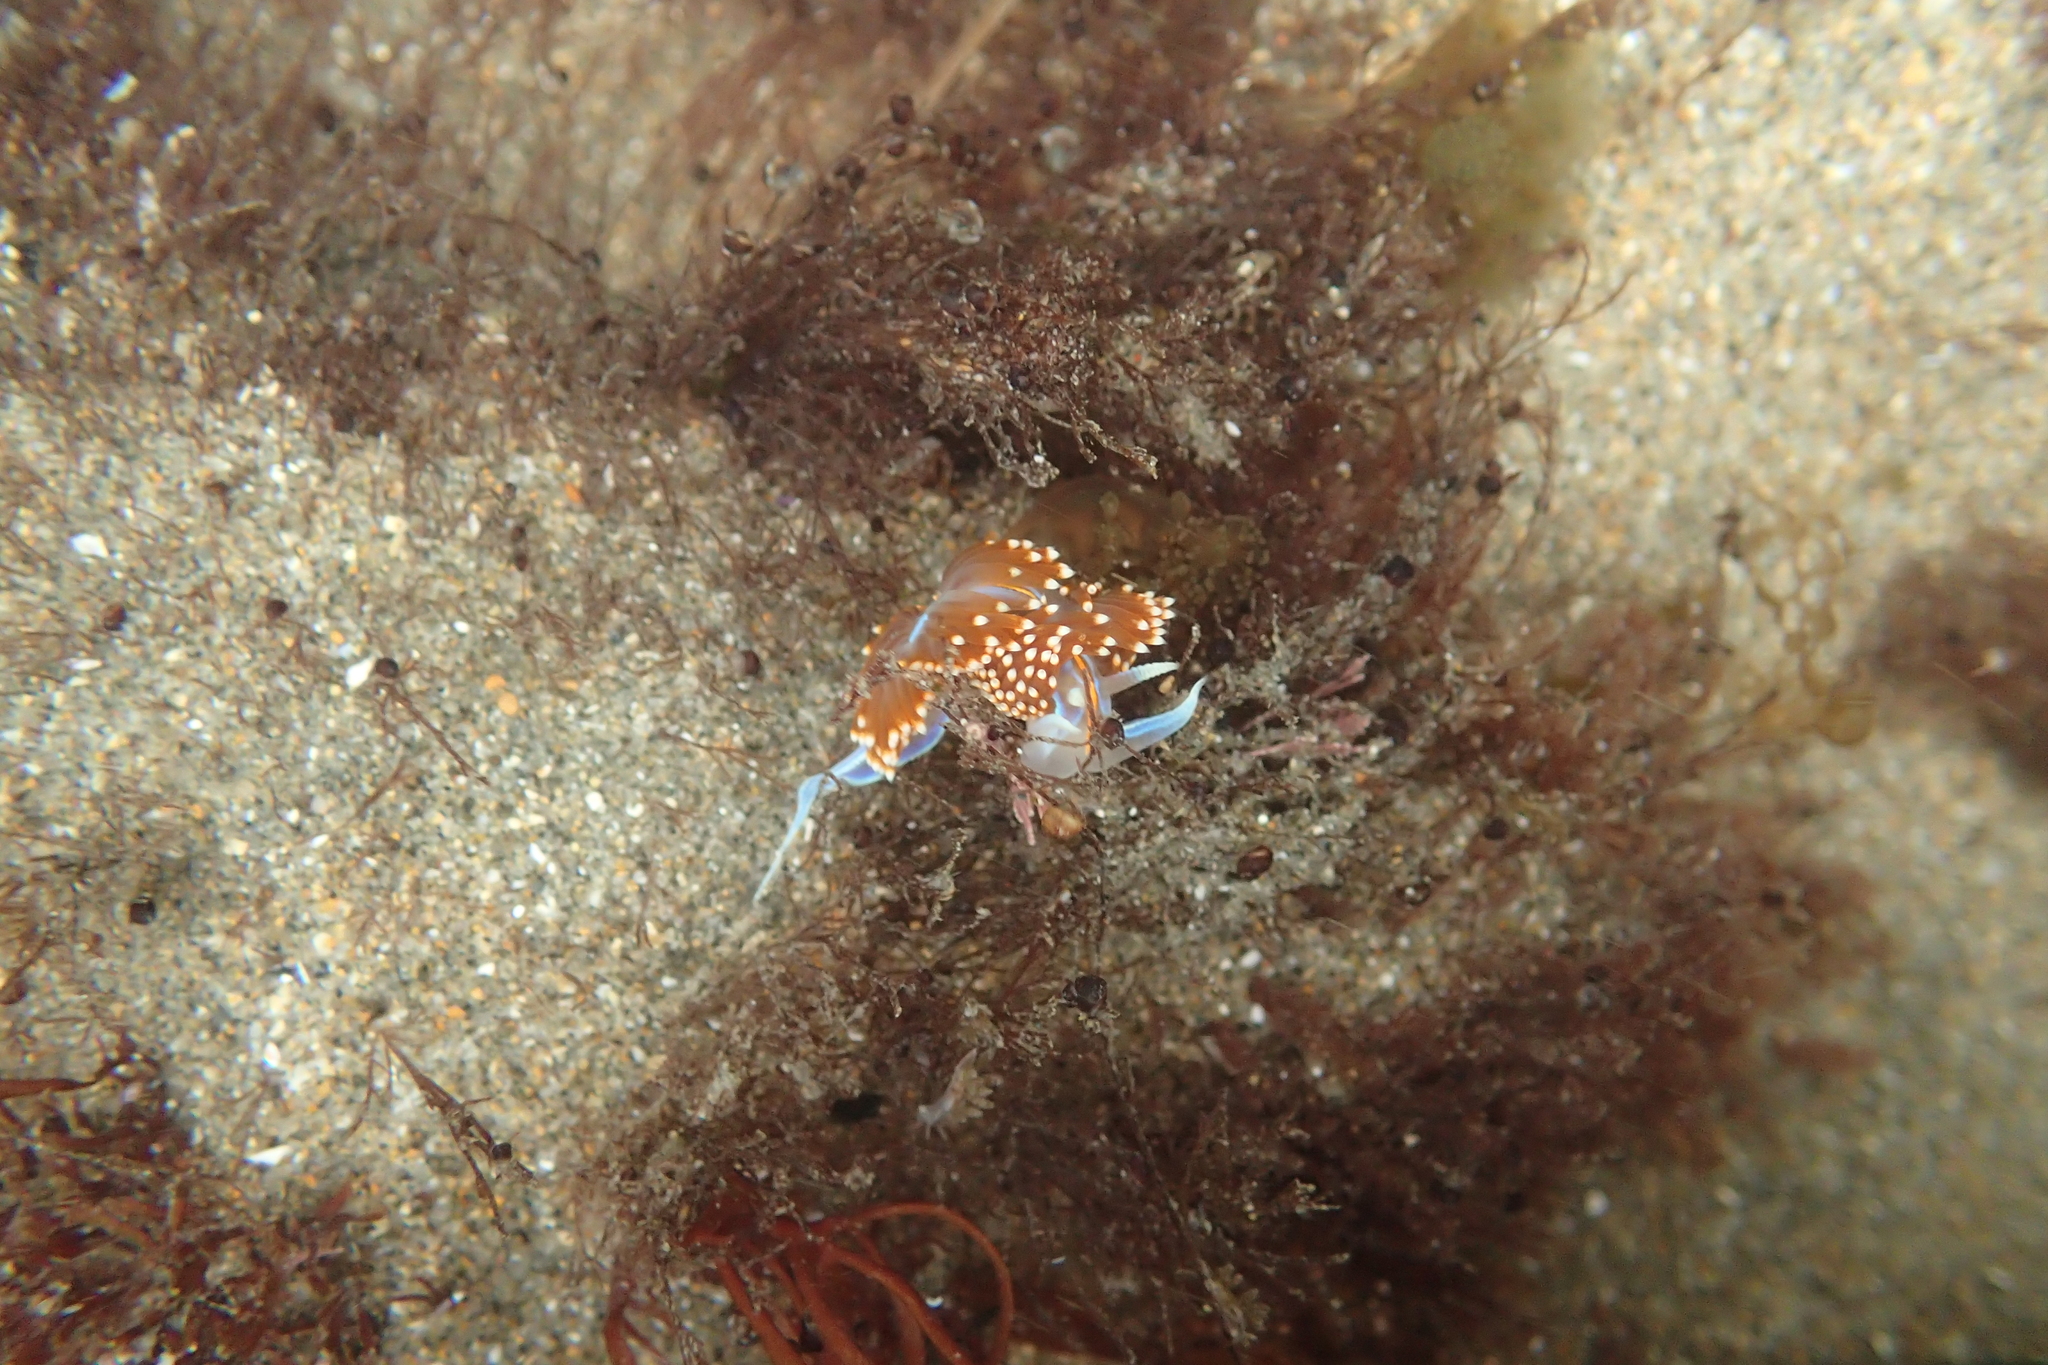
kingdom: Animalia
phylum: Mollusca
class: Gastropoda
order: Nudibranchia
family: Myrrhinidae
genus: Hermissenda
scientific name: Hermissenda opalescens
